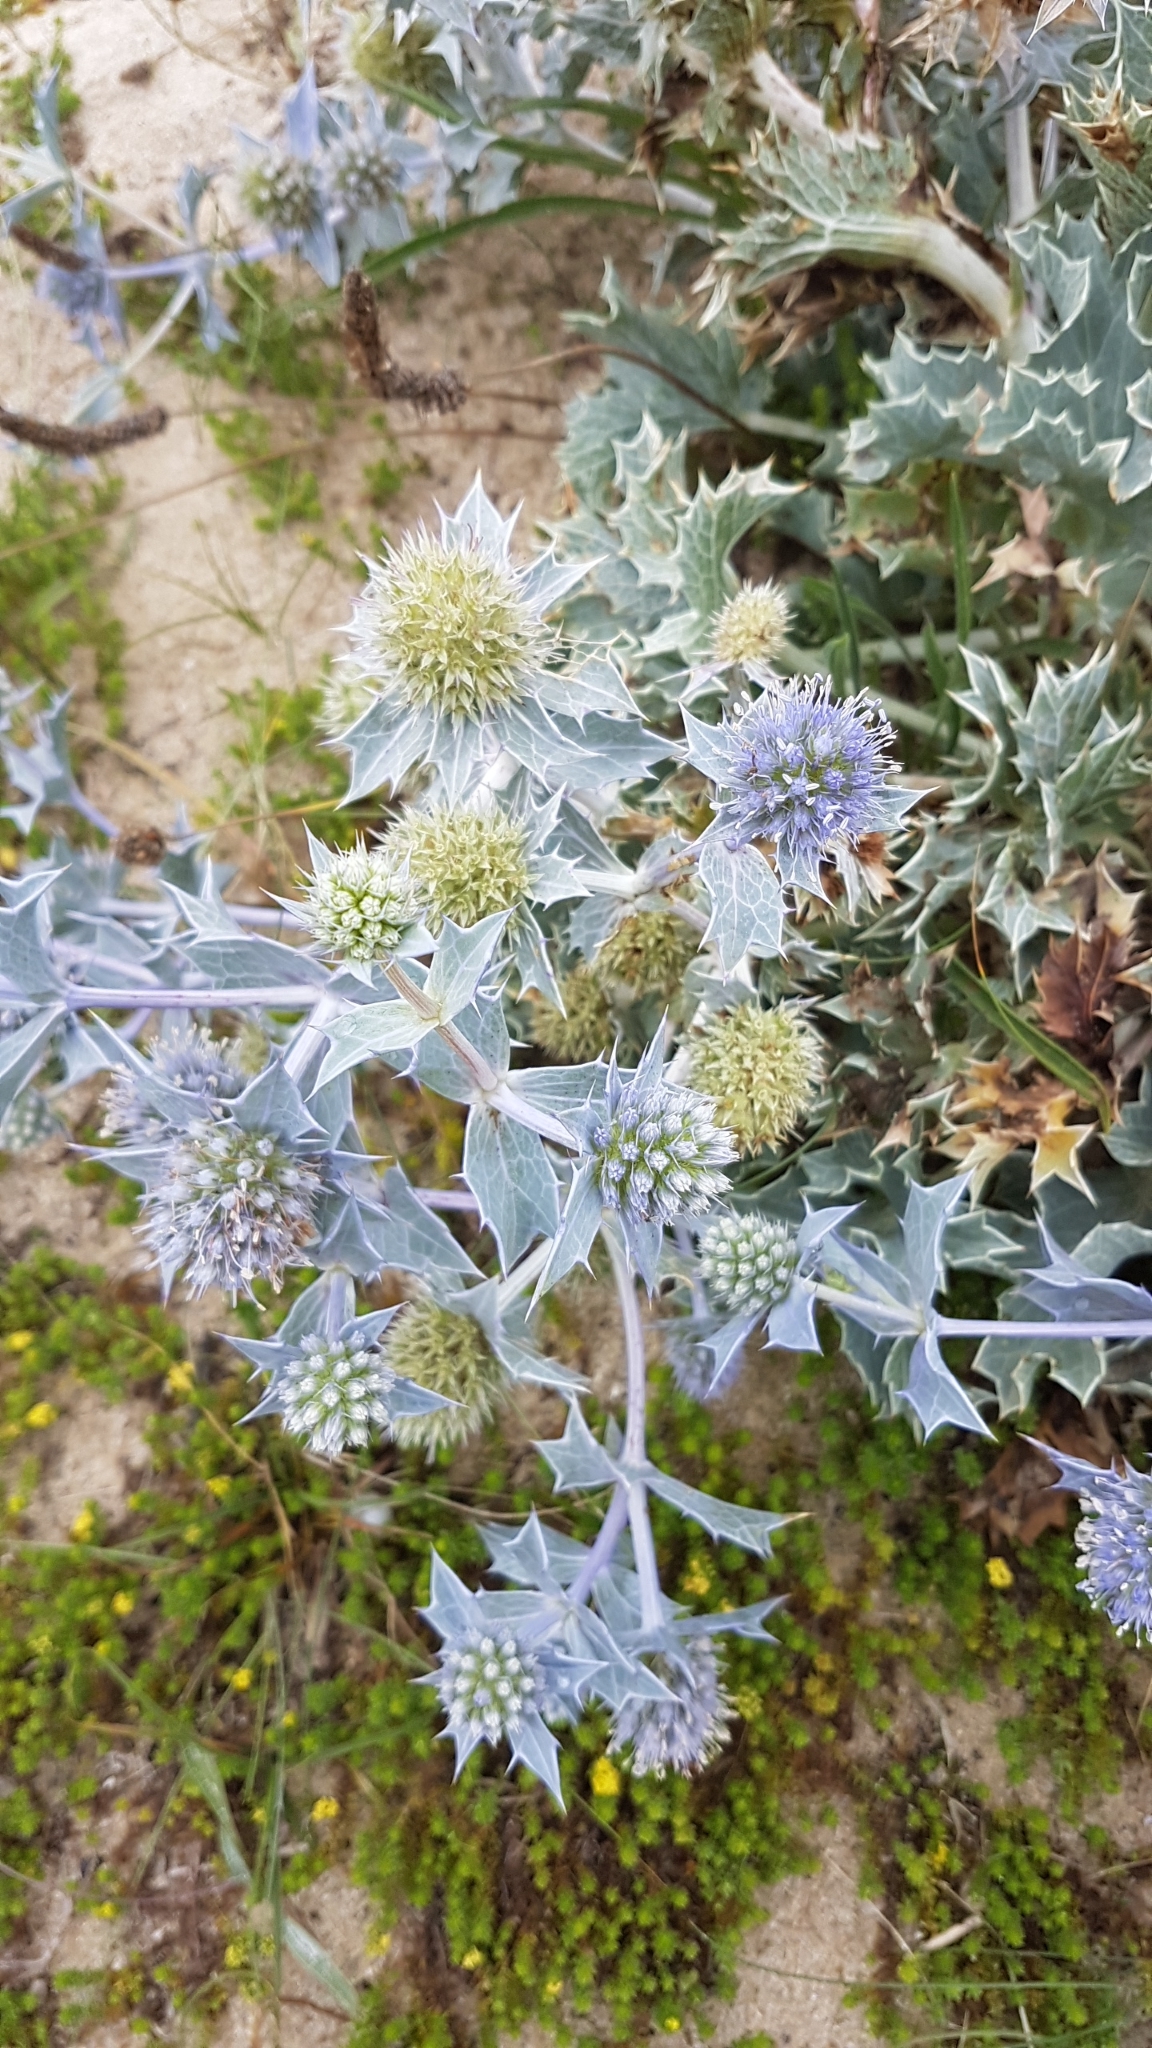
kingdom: Plantae
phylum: Tracheophyta
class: Magnoliopsida
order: Apiales
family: Apiaceae
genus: Eryngium
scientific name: Eryngium maritimum
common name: Sea-holly
